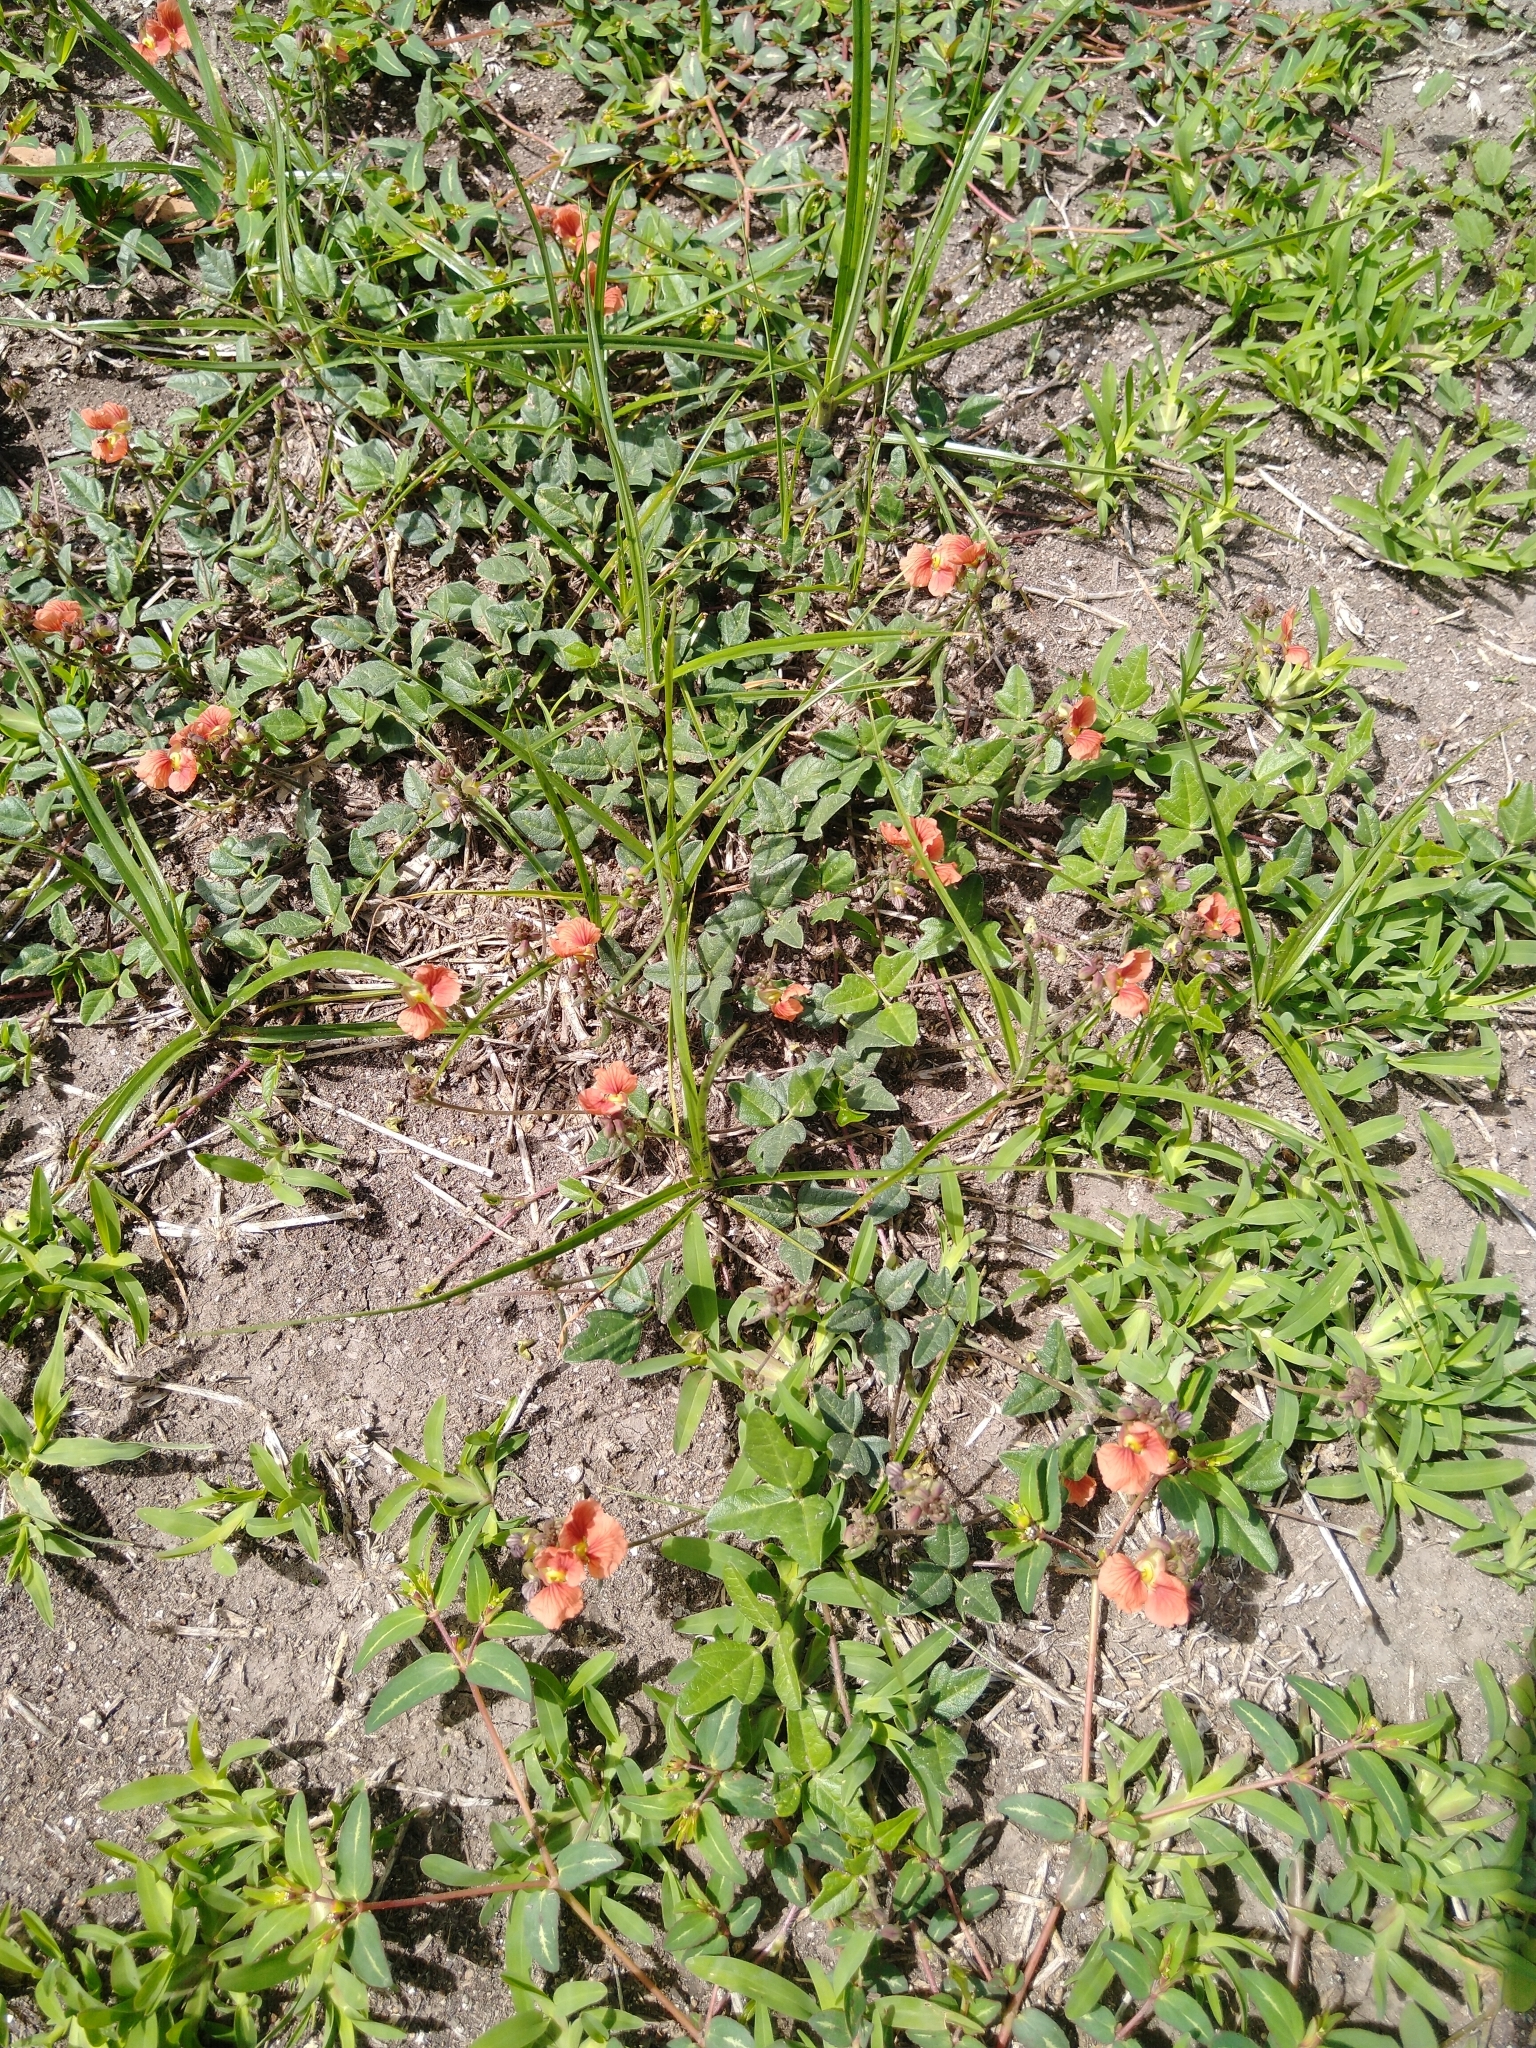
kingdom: Plantae
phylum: Tracheophyta
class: Magnoliopsida
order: Fabales
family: Fabaceae
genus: Macroptilium
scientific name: Macroptilium gibbosifolium
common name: Variableleaf bushbean
